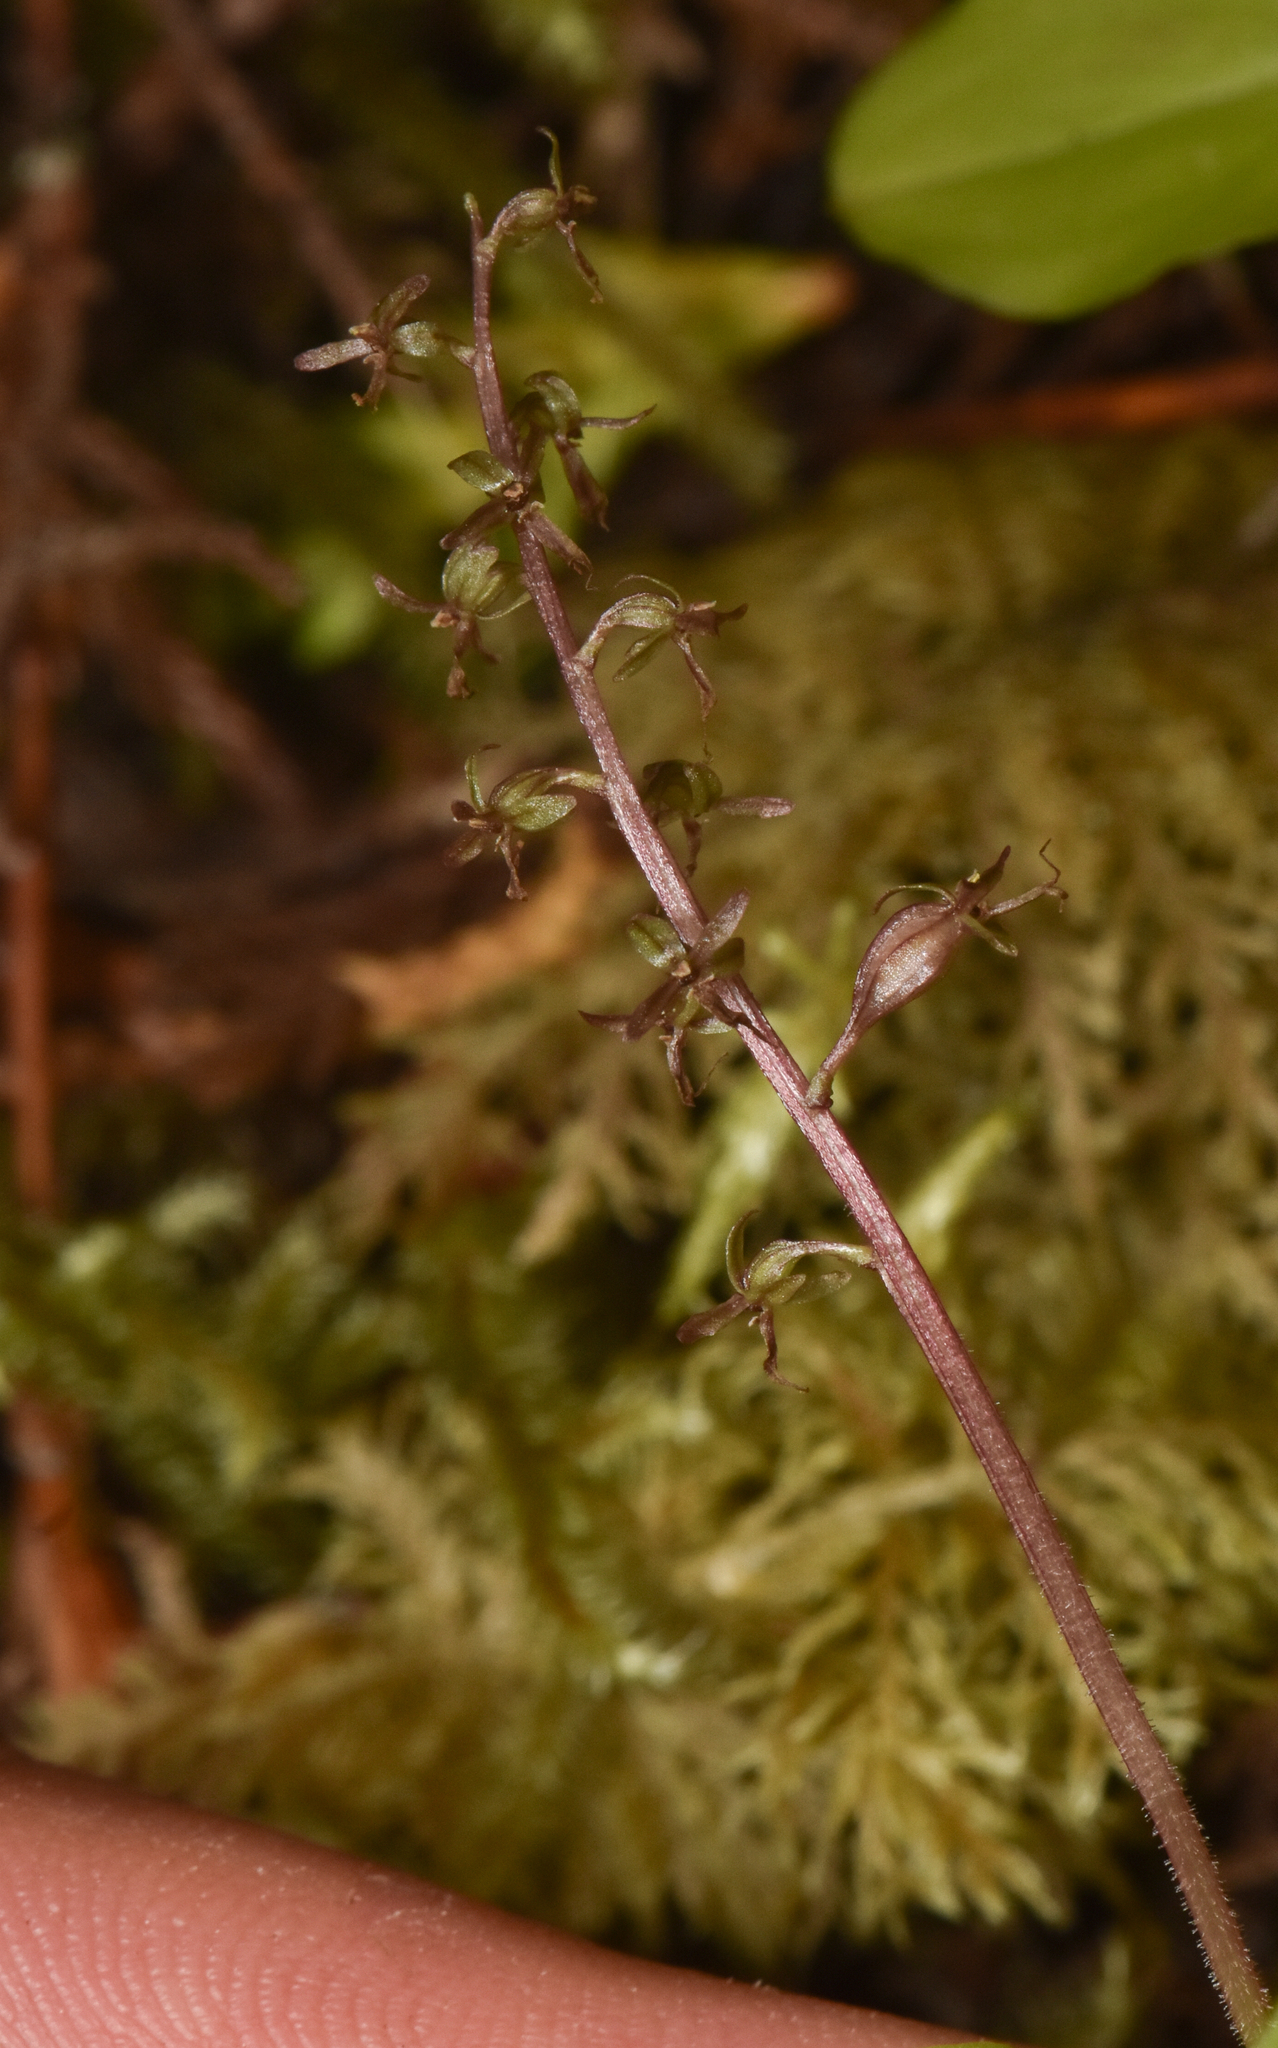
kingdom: Plantae
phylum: Tracheophyta
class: Liliopsida
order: Asparagales
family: Orchidaceae
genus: Neottia
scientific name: Neottia cordata
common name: Lesser twayblade
